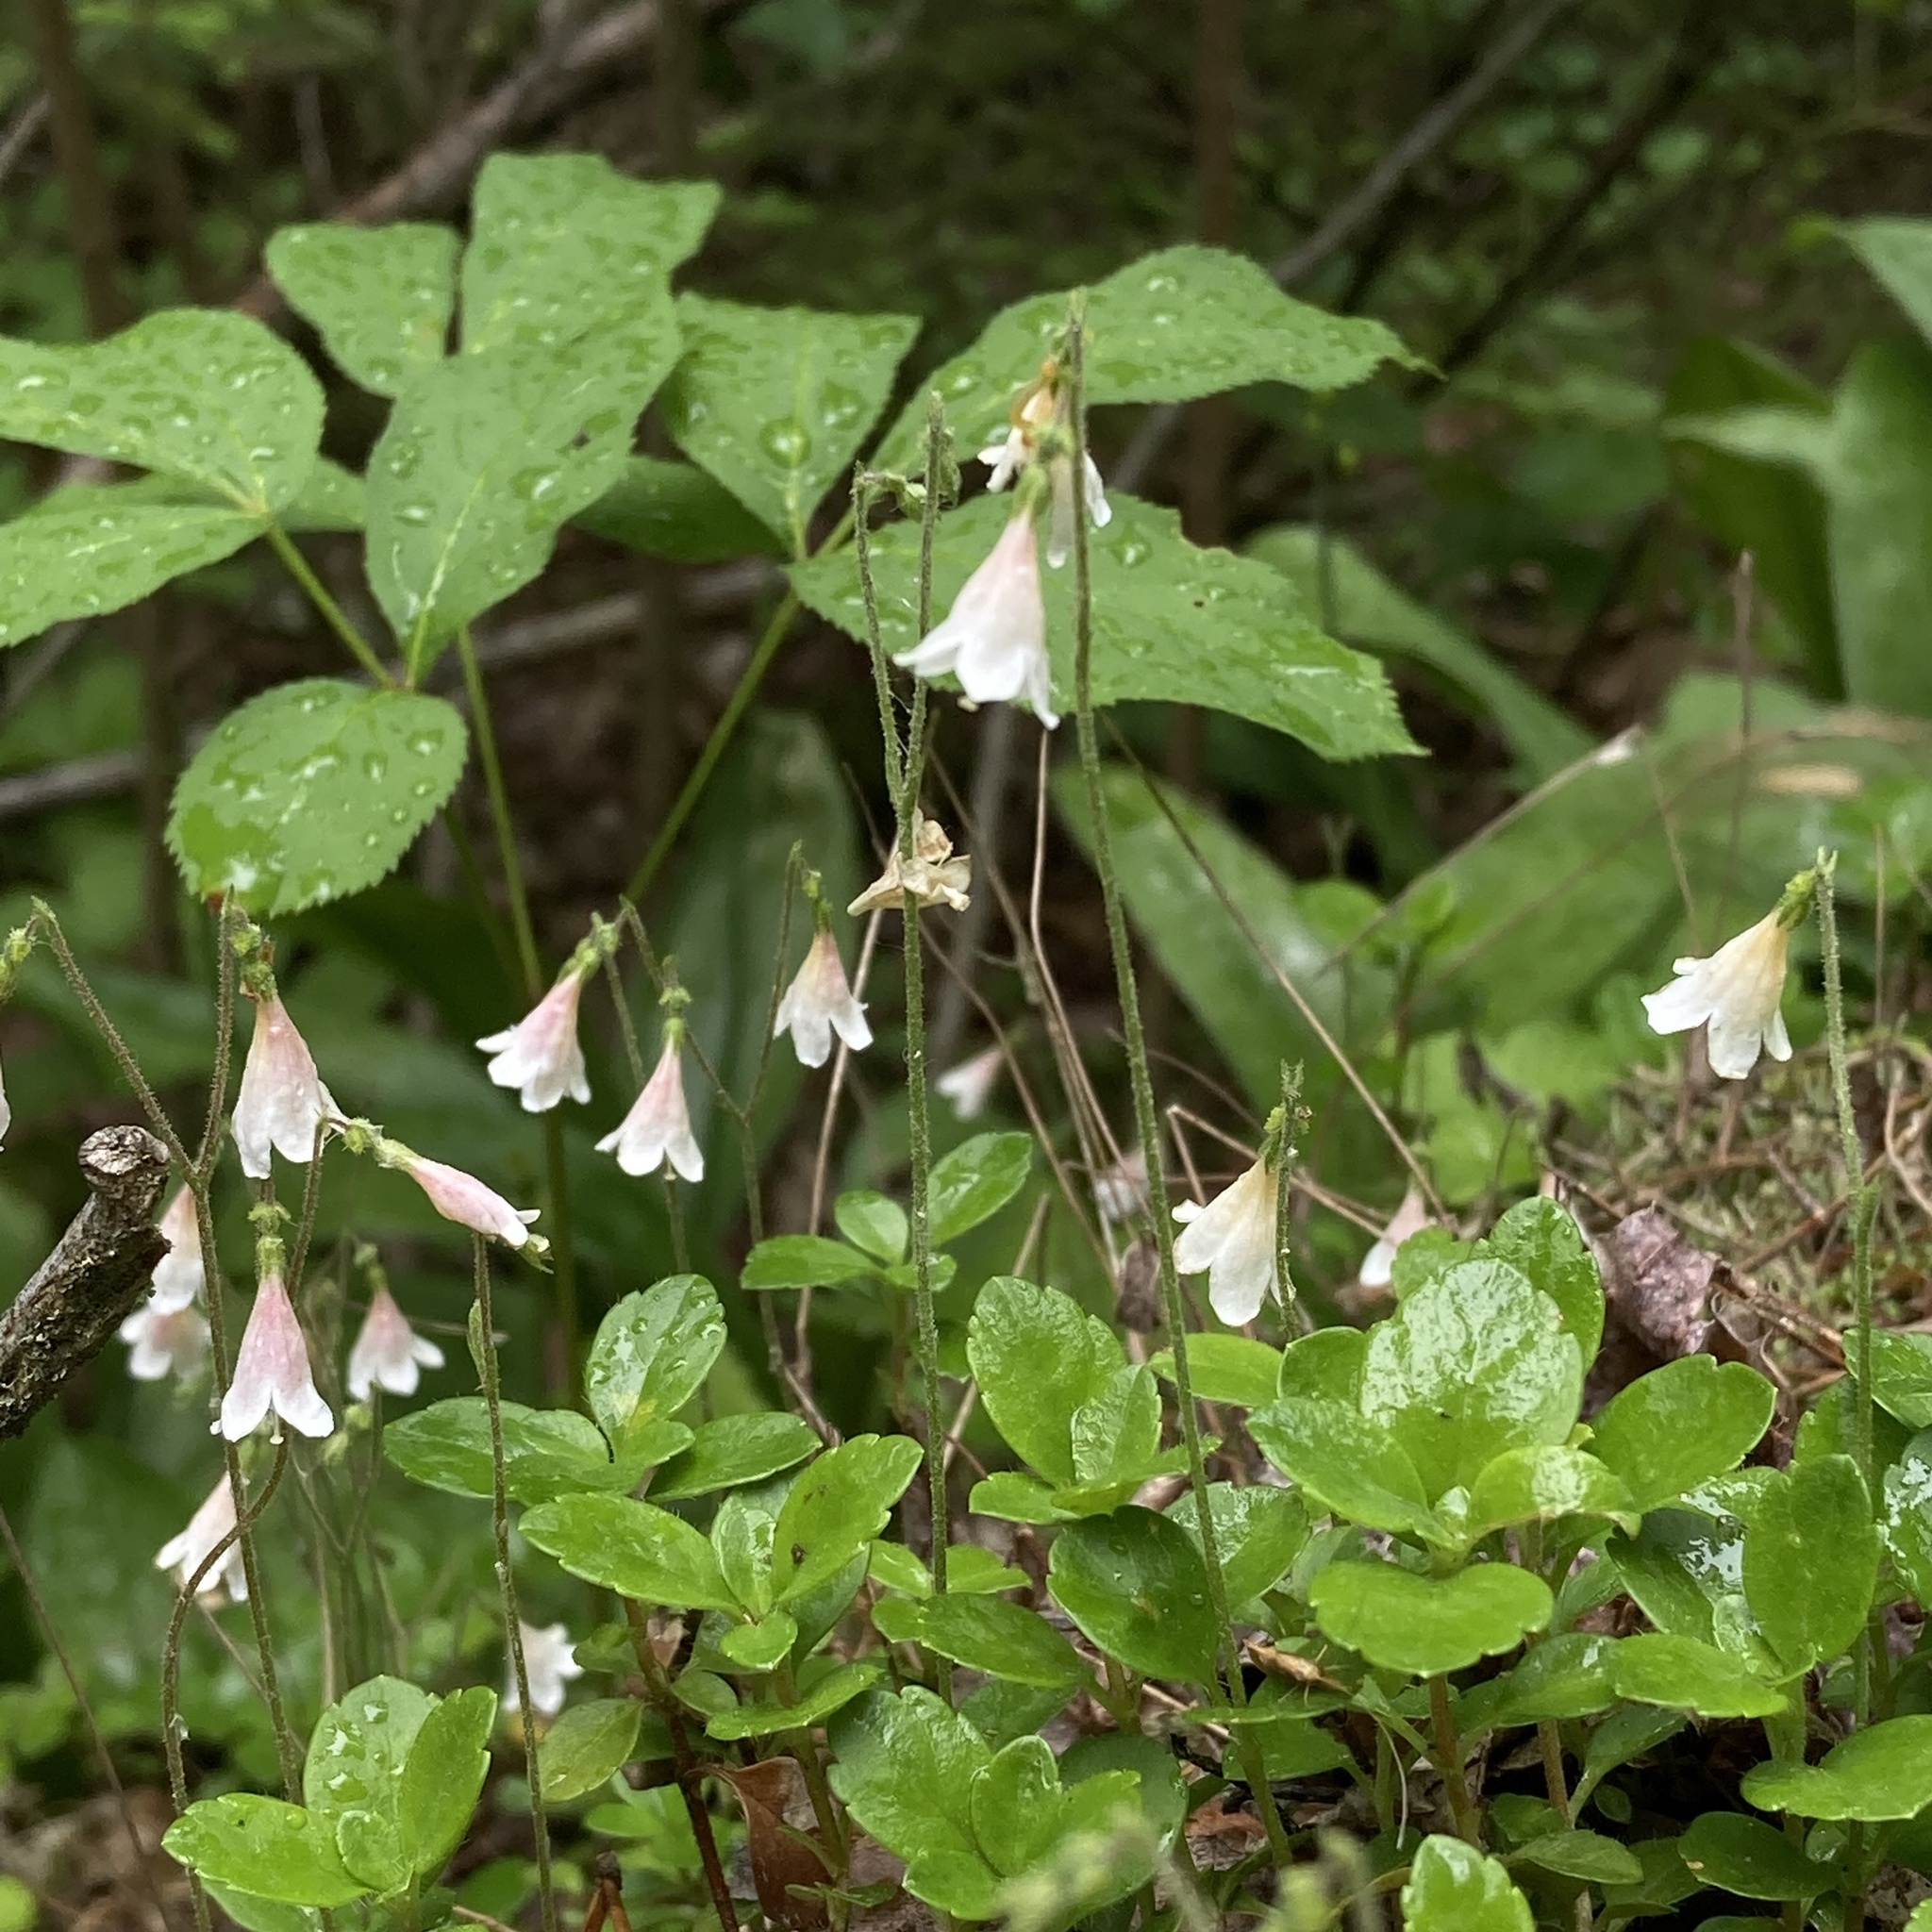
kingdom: Plantae
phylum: Tracheophyta
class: Magnoliopsida
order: Dipsacales
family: Caprifoliaceae
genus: Linnaea
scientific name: Linnaea borealis
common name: Twinflower
